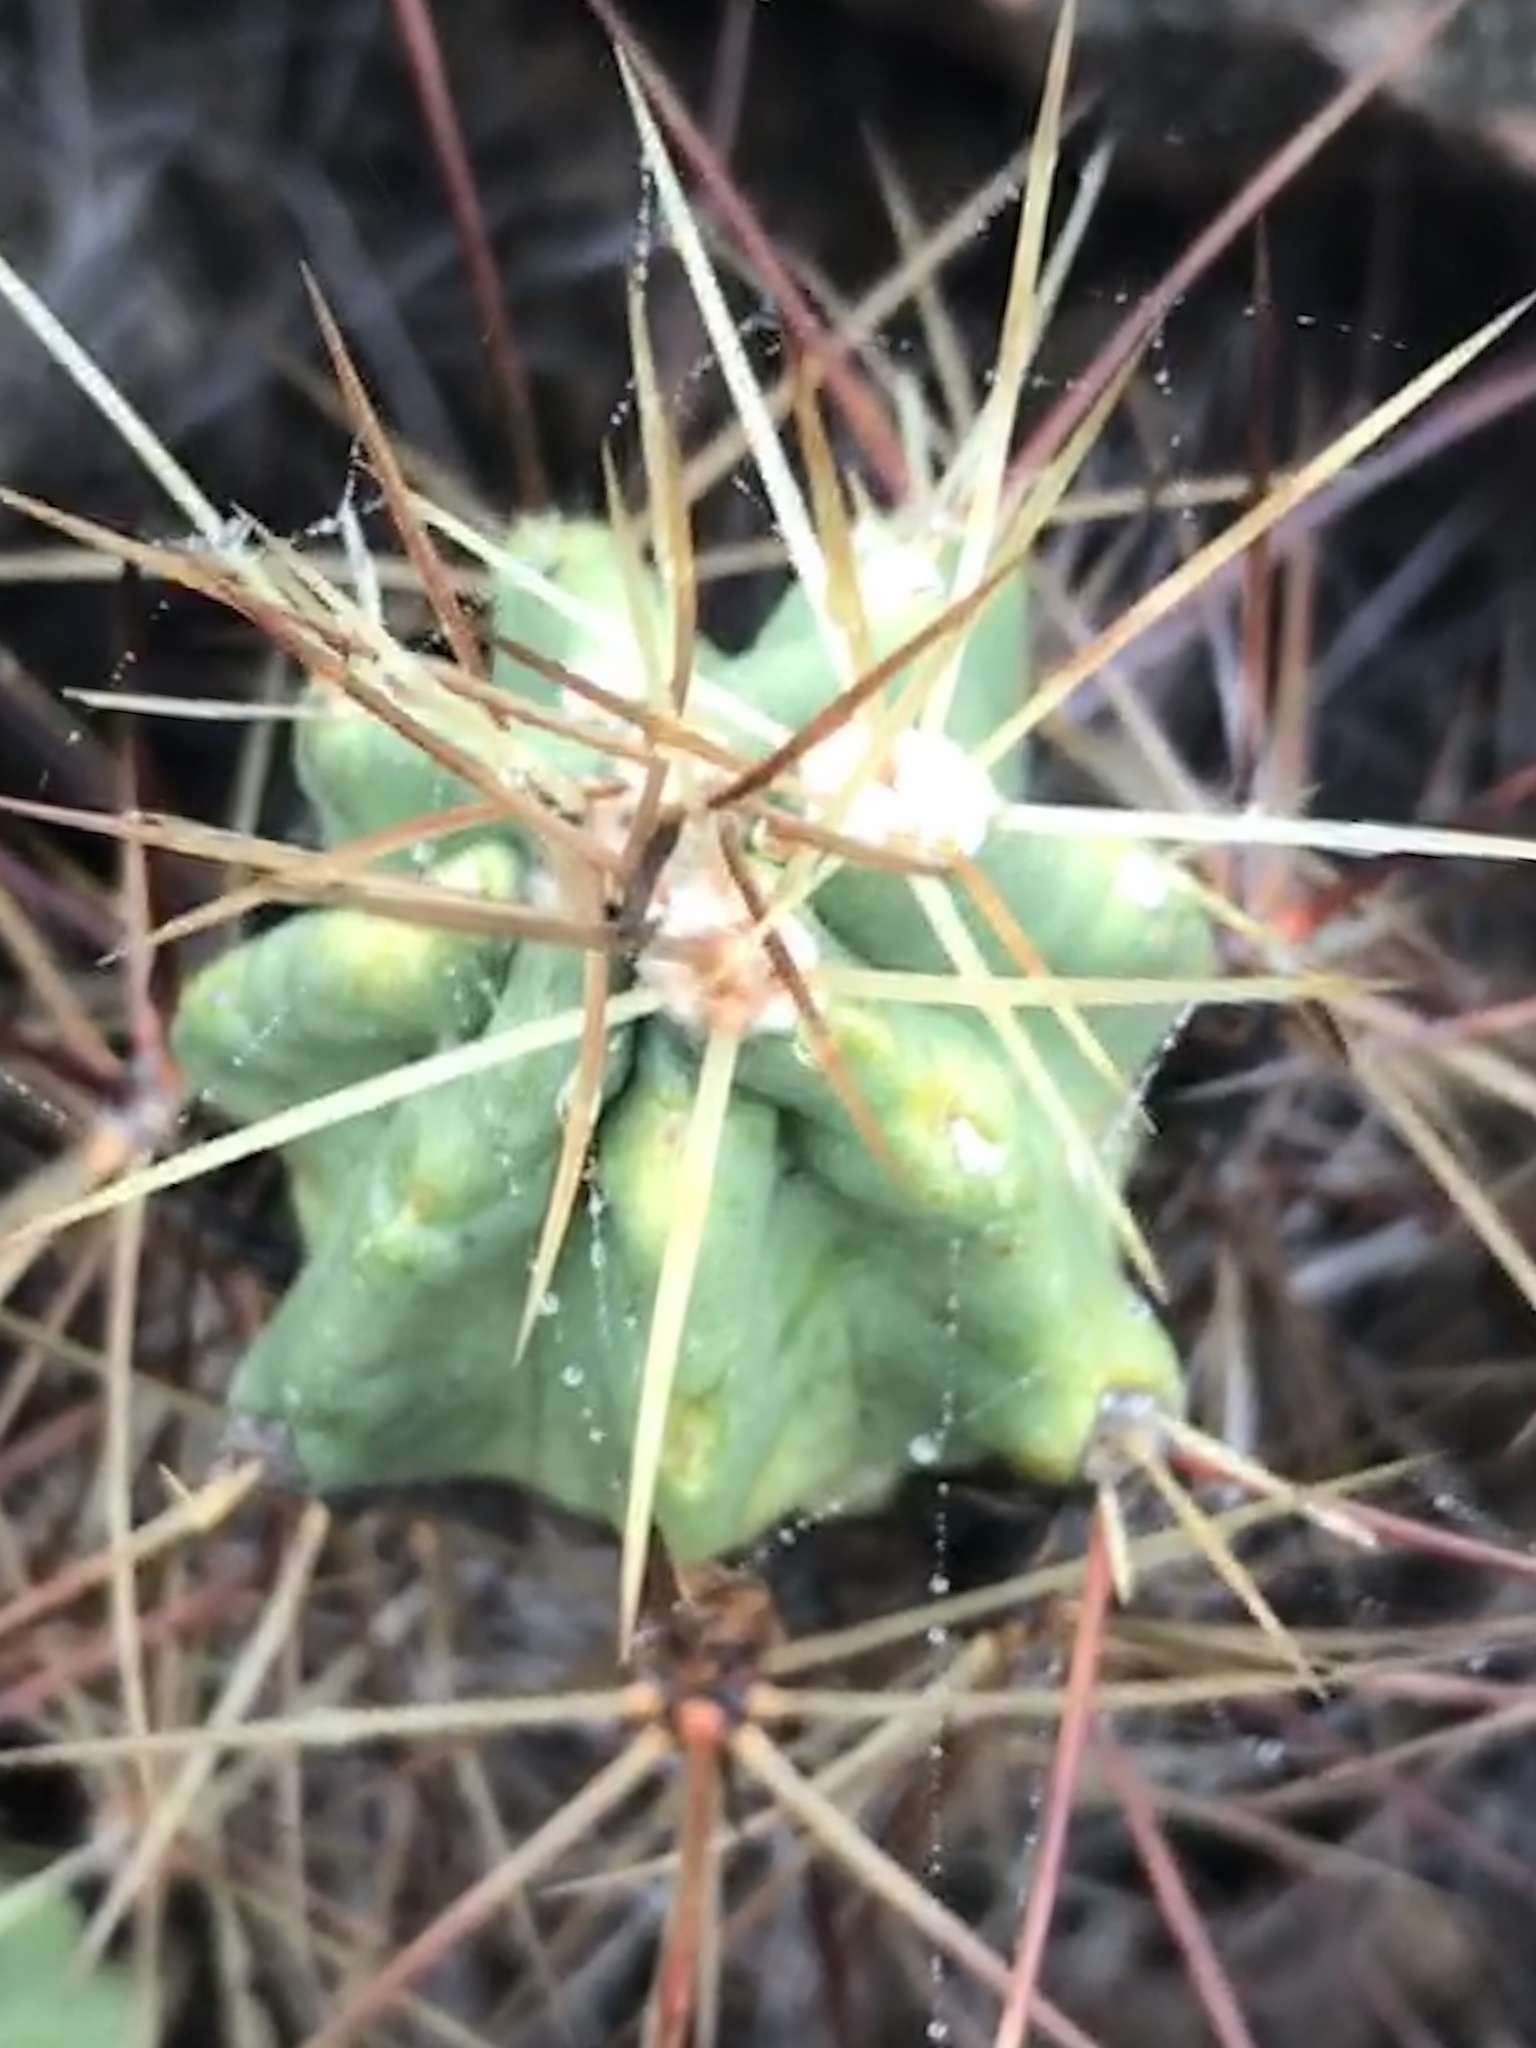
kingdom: Plantae
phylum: Tracheophyta
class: Magnoliopsida
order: Caryophyllales
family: Cactaceae
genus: Echinocereus
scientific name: Echinocereus coccineus
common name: Scarlet hedgehog cactus
